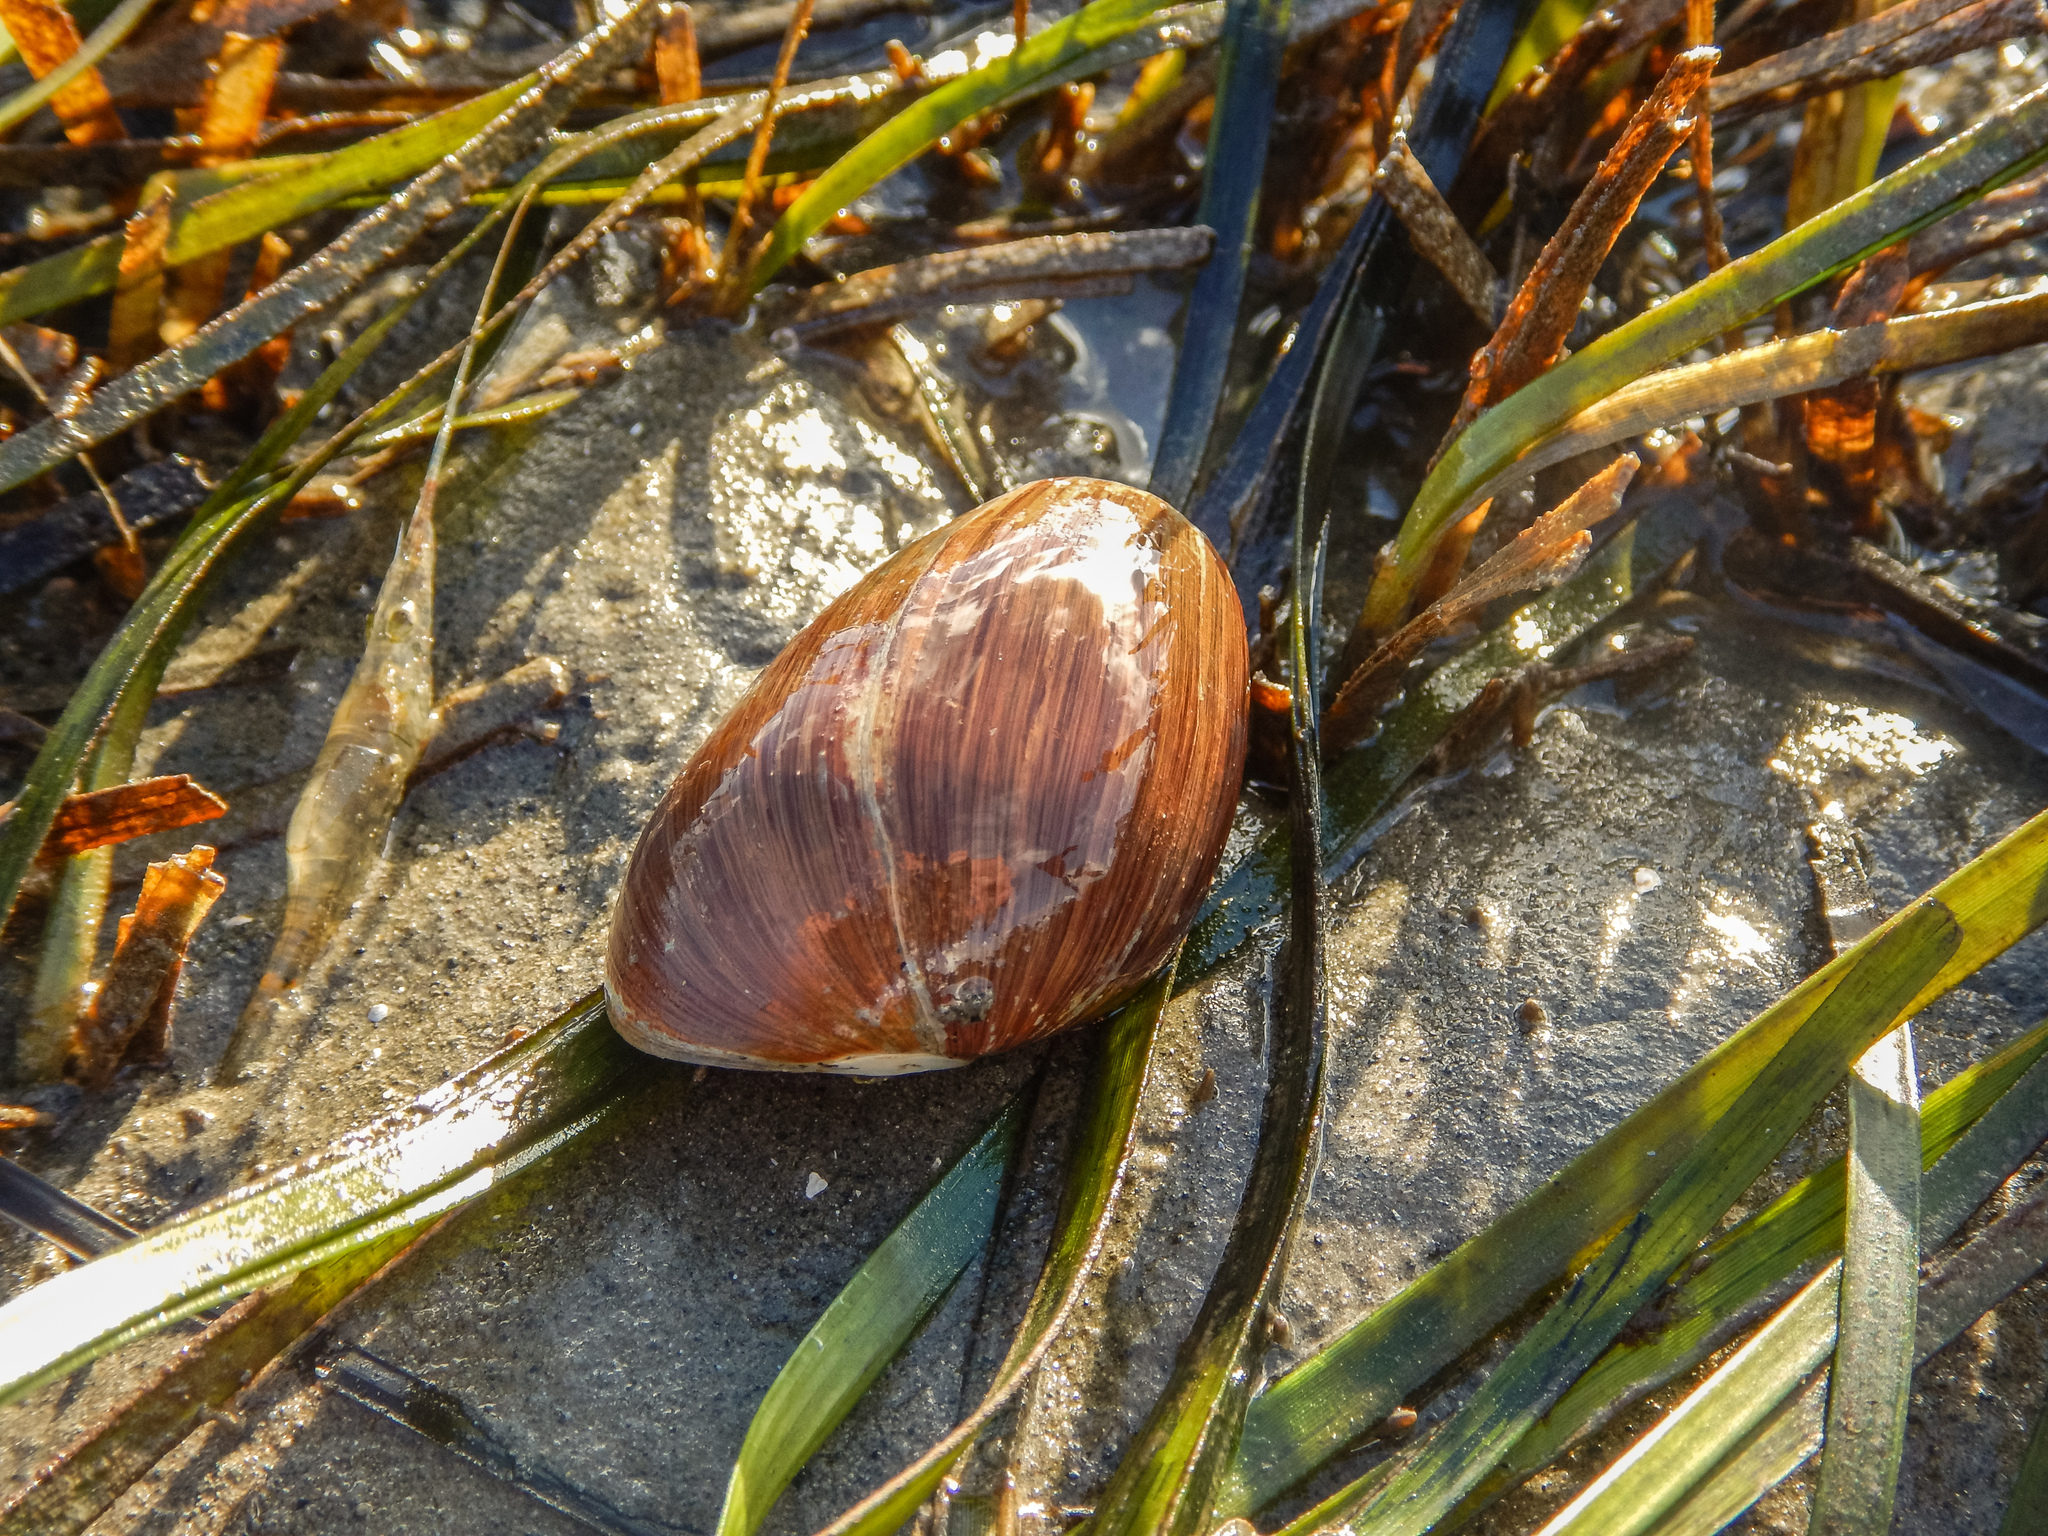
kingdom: Animalia
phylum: Mollusca
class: Gastropoda
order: Cephalaspidea
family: Bullidae
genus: Bulla
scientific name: Bulla quoyii
